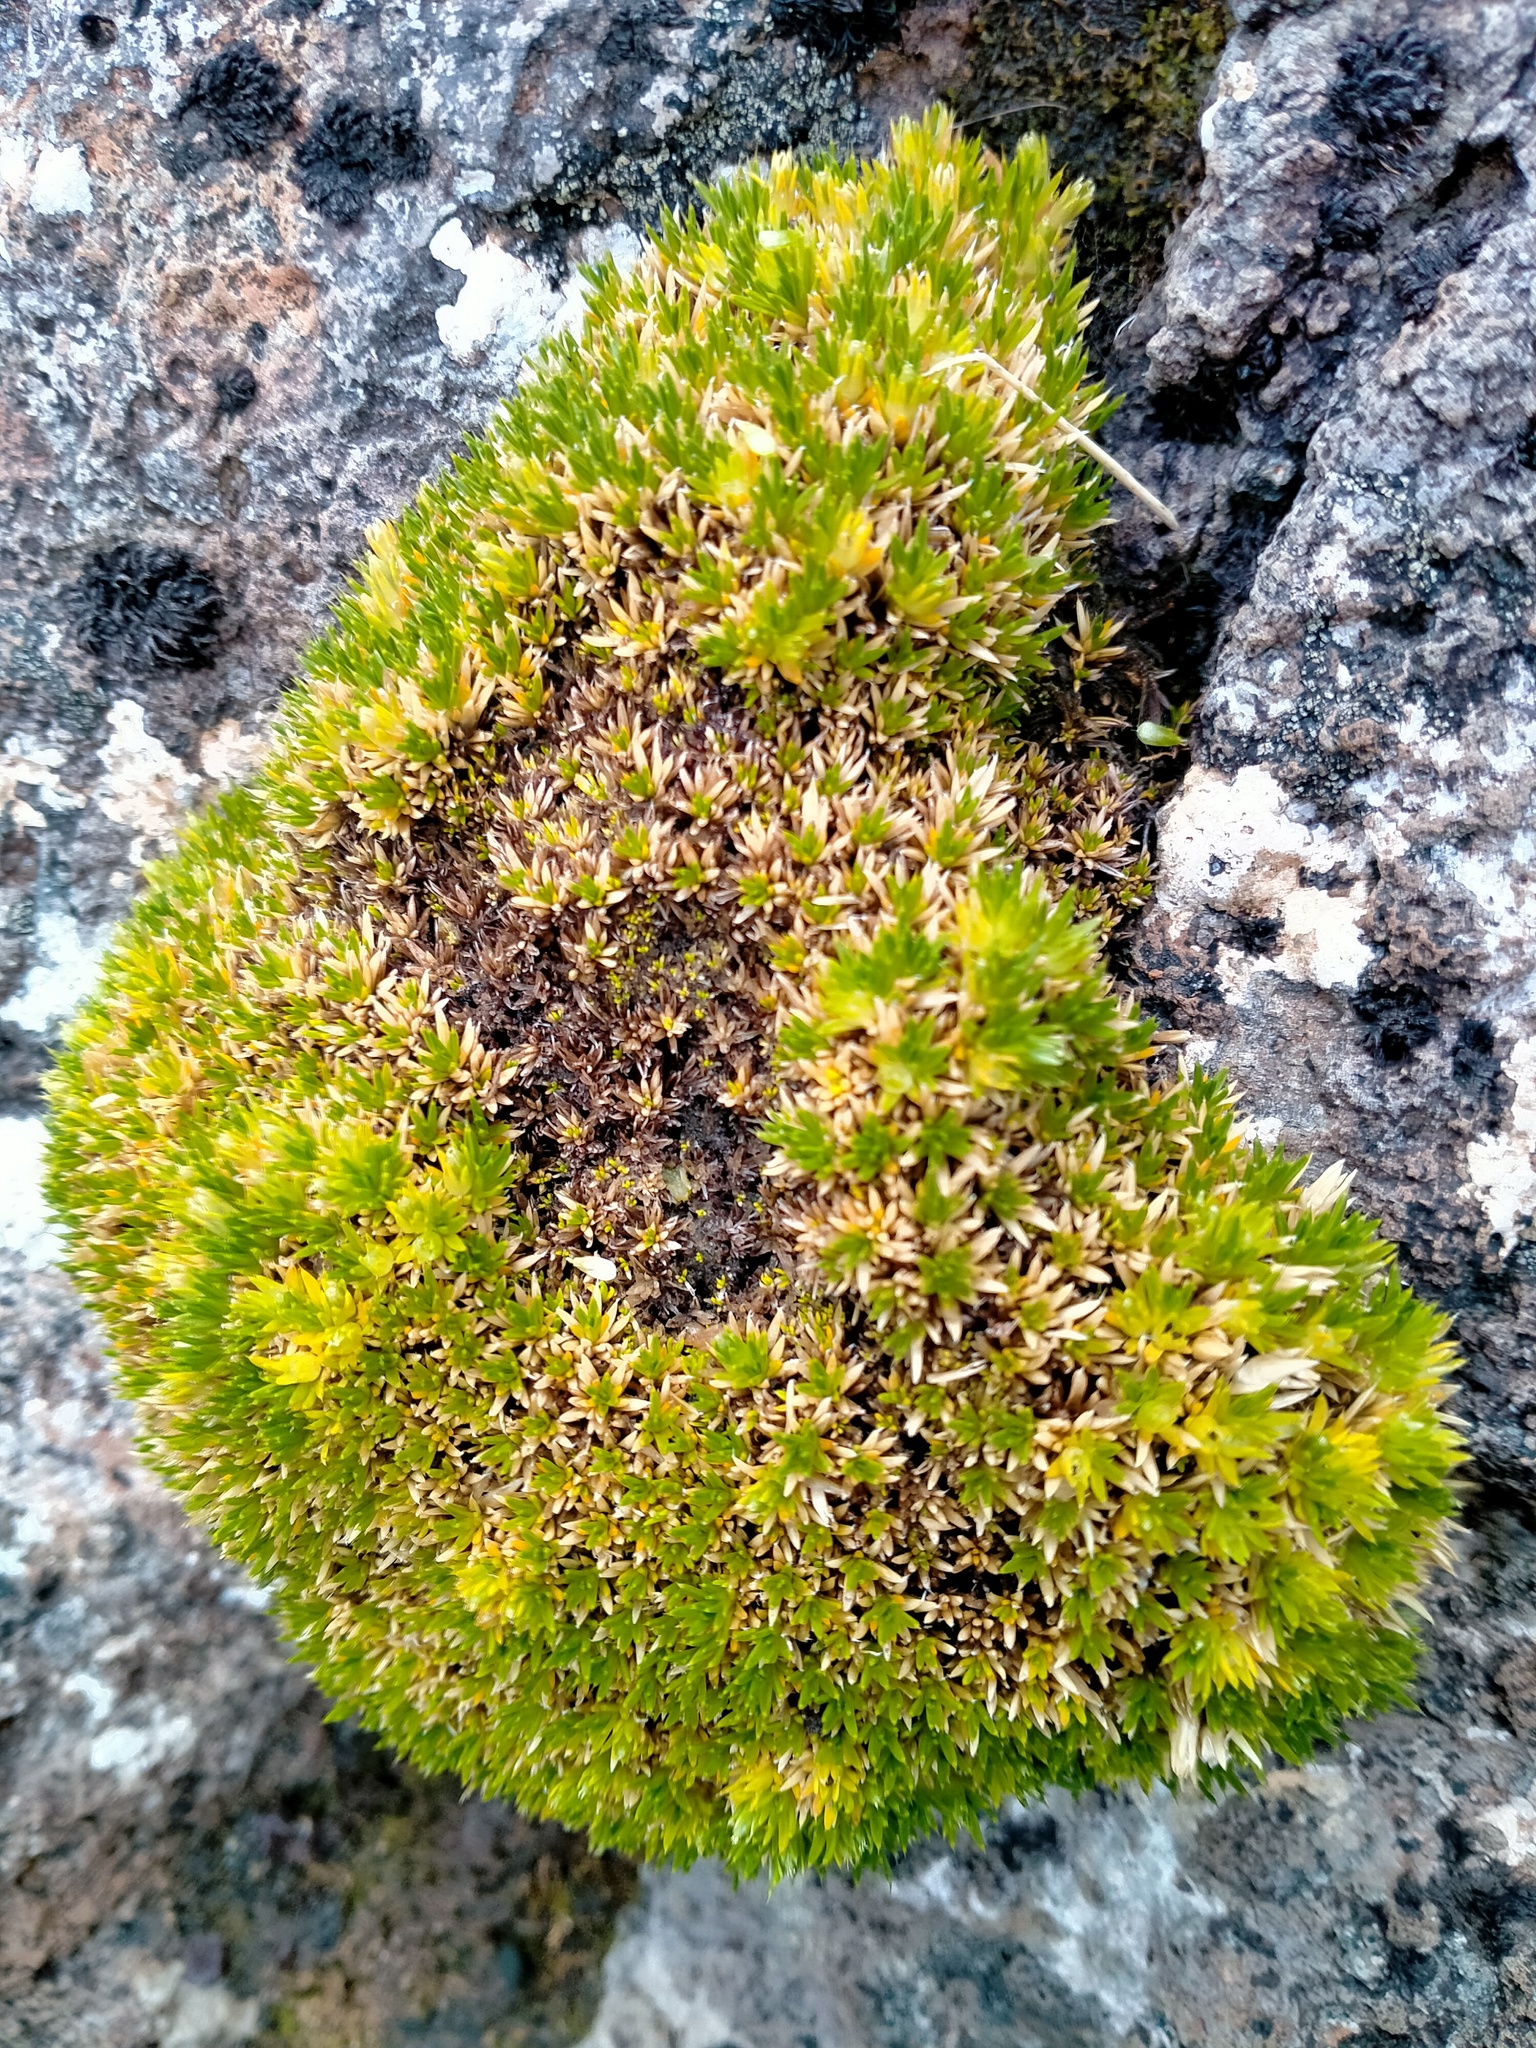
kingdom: Plantae
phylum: Tracheophyta
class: Magnoliopsida
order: Caryophyllales
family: Caryophyllaceae
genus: Colobanthus
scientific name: Colobanthus hookeri
